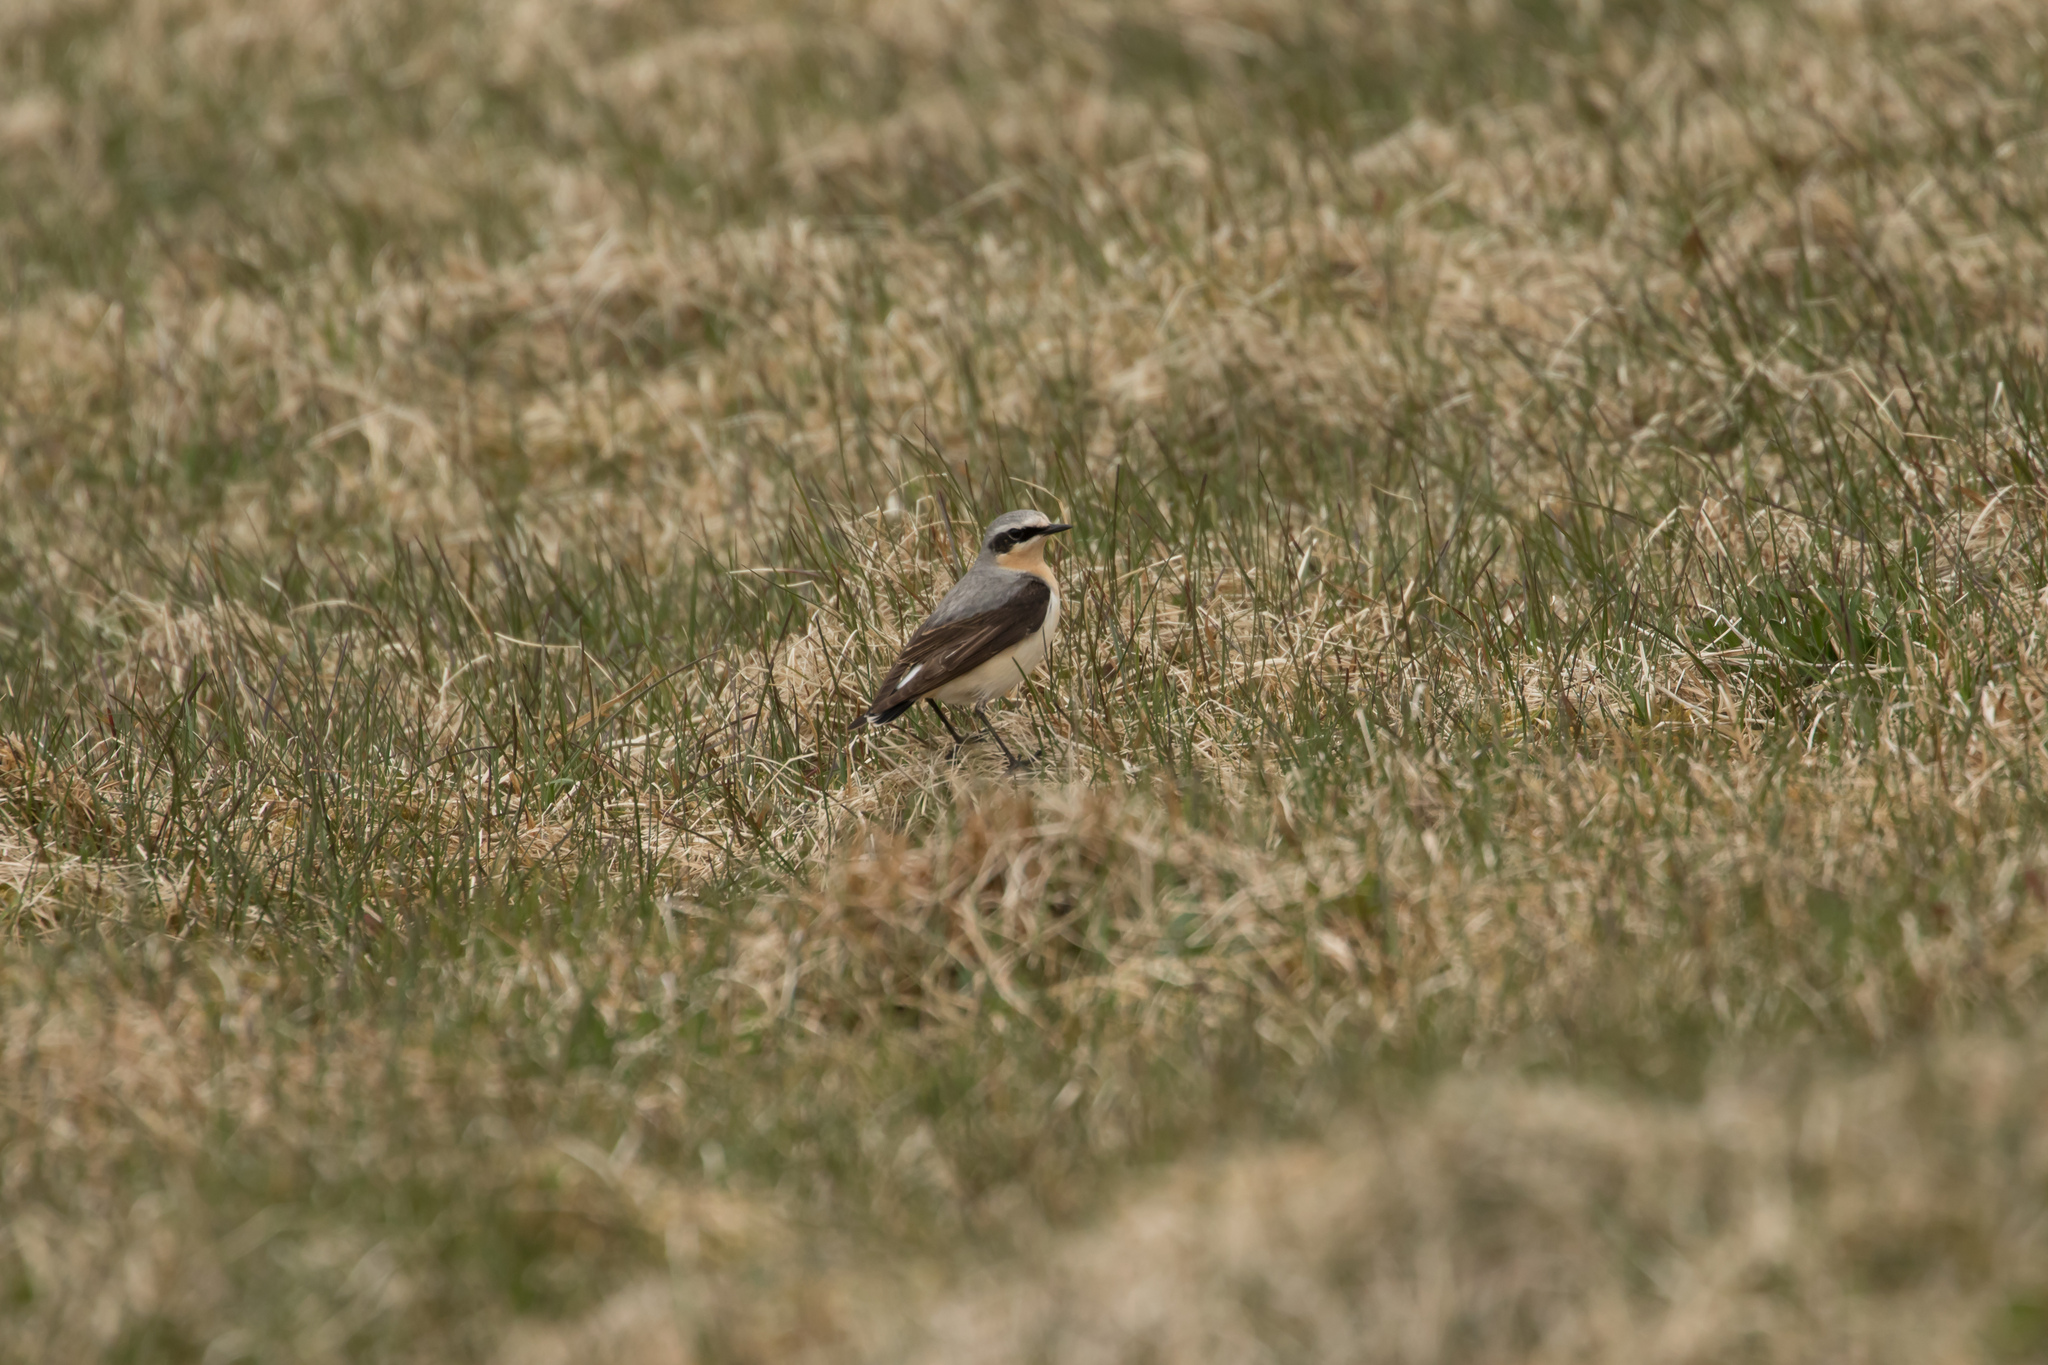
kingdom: Animalia
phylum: Chordata
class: Aves
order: Passeriformes
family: Muscicapidae
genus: Oenanthe
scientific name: Oenanthe oenanthe
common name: Northern wheatear
